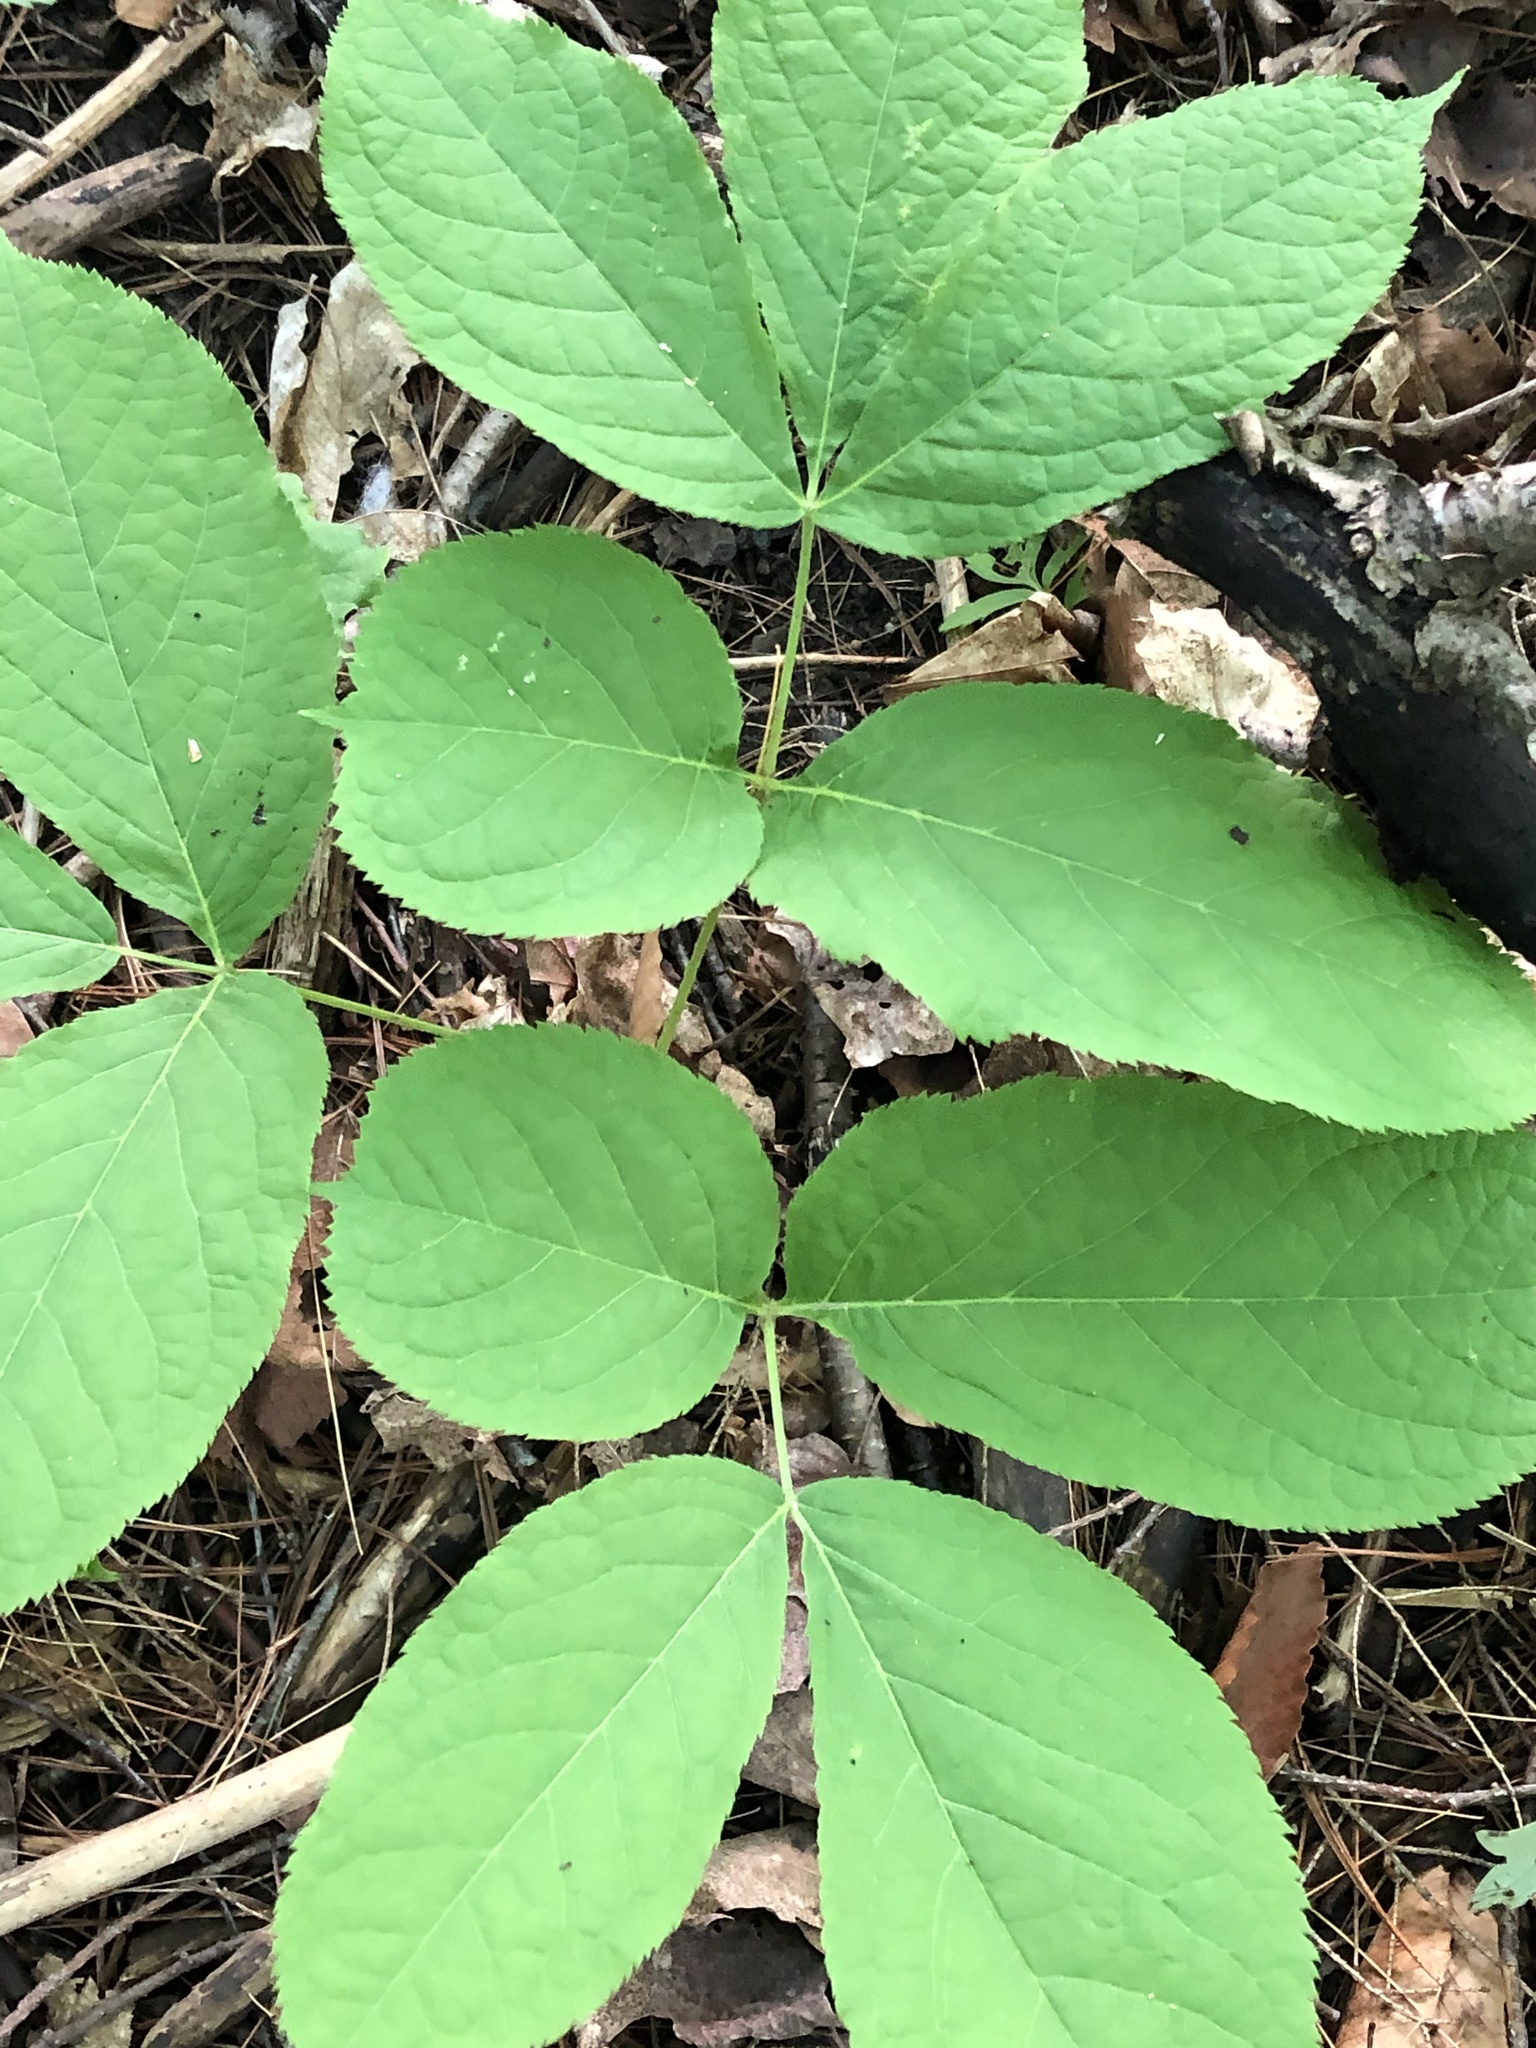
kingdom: Plantae
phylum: Tracheophyta
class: Magnoliopsida
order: Apiales
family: Araliaceae
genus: Aralia
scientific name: Aralia nudicaulis
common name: Wild sarsaparilla
